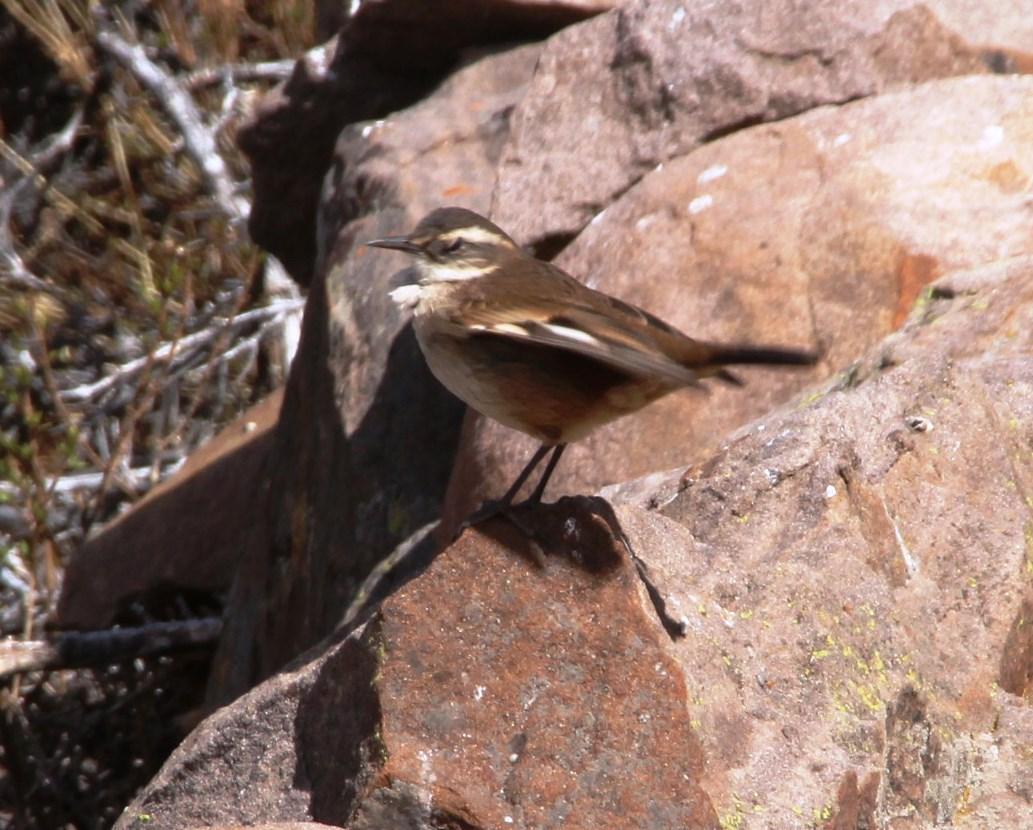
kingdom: Animalia
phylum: Chordata
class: Aves
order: Passeriformes
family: Furnariidae
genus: Cinclodes
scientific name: Cinclodes fuscus
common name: Buff-winged cinclodes
